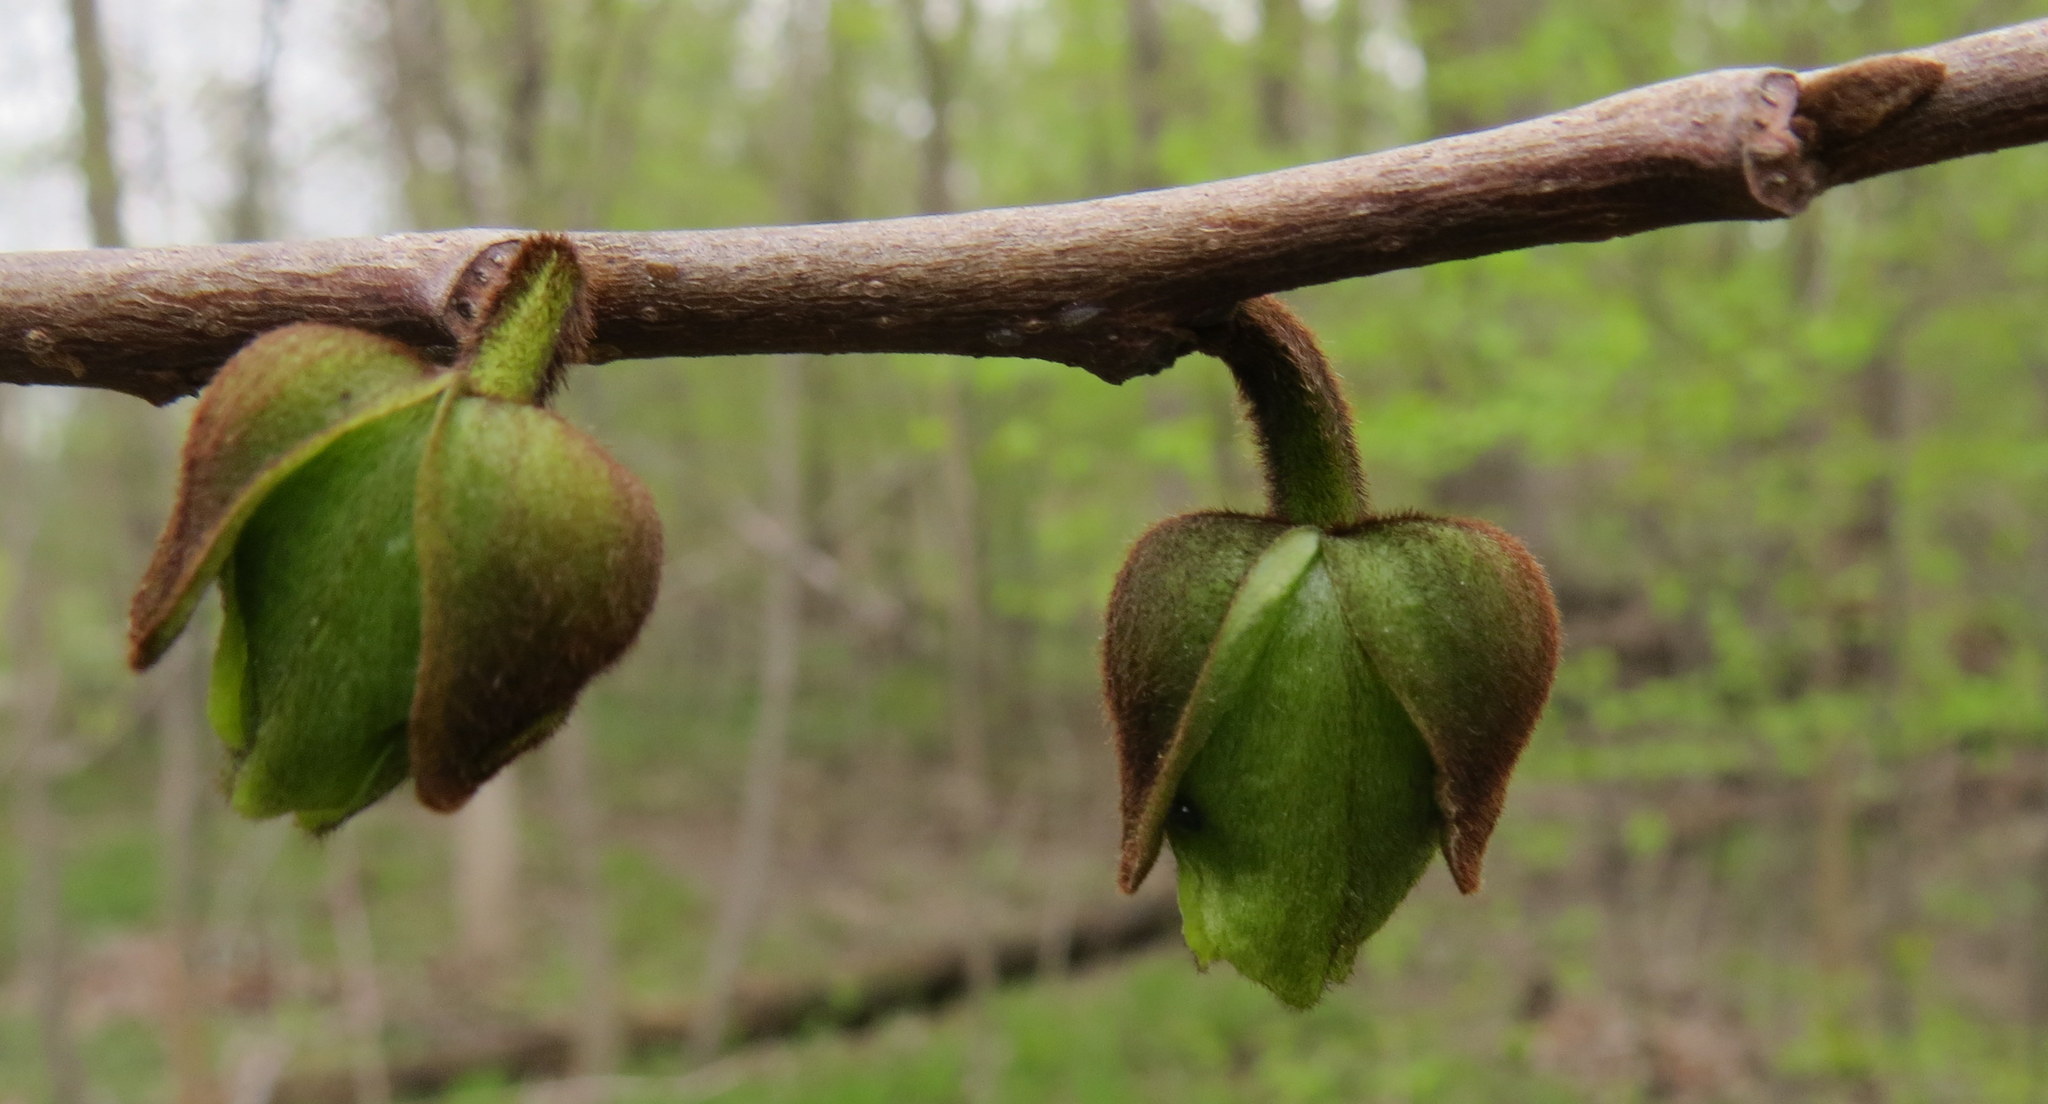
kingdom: Plantae
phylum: Tracheophyta
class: Magnoliopsida
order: Magnoliales
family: Annonaceae
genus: Asimina
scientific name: Asimina triloba
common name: Dog-banana
